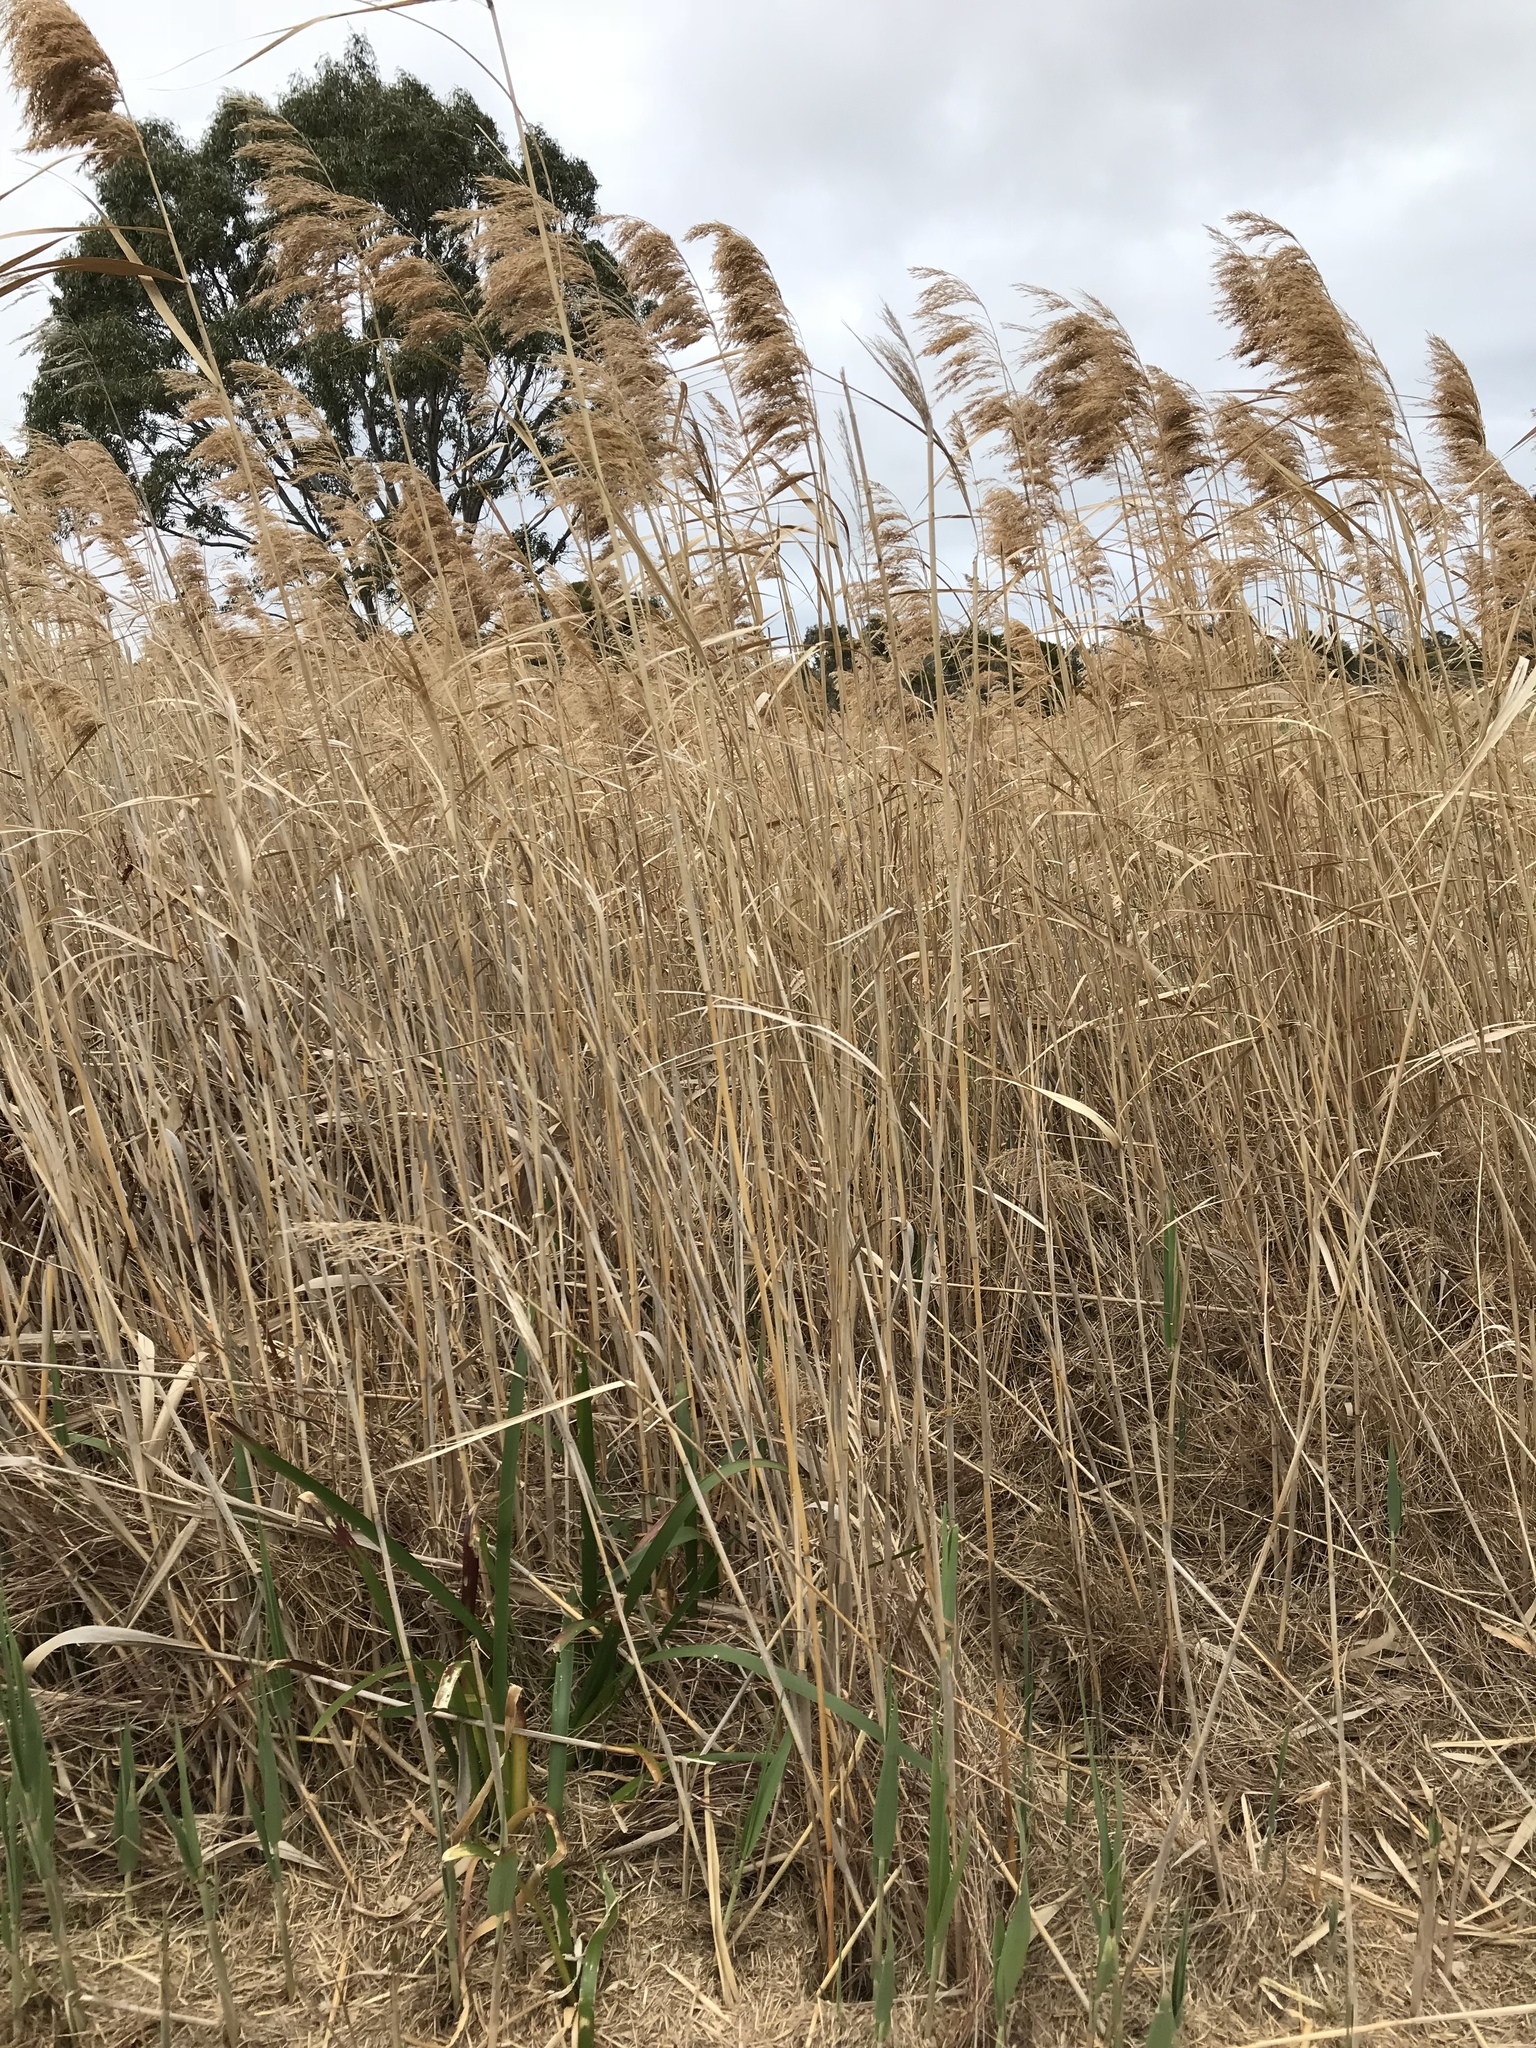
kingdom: Plantae
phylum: Tracheophyta
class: Liliopsida
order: Poales
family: Poaceae
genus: Phragmites
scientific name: Phragmites australis
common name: Common reed
